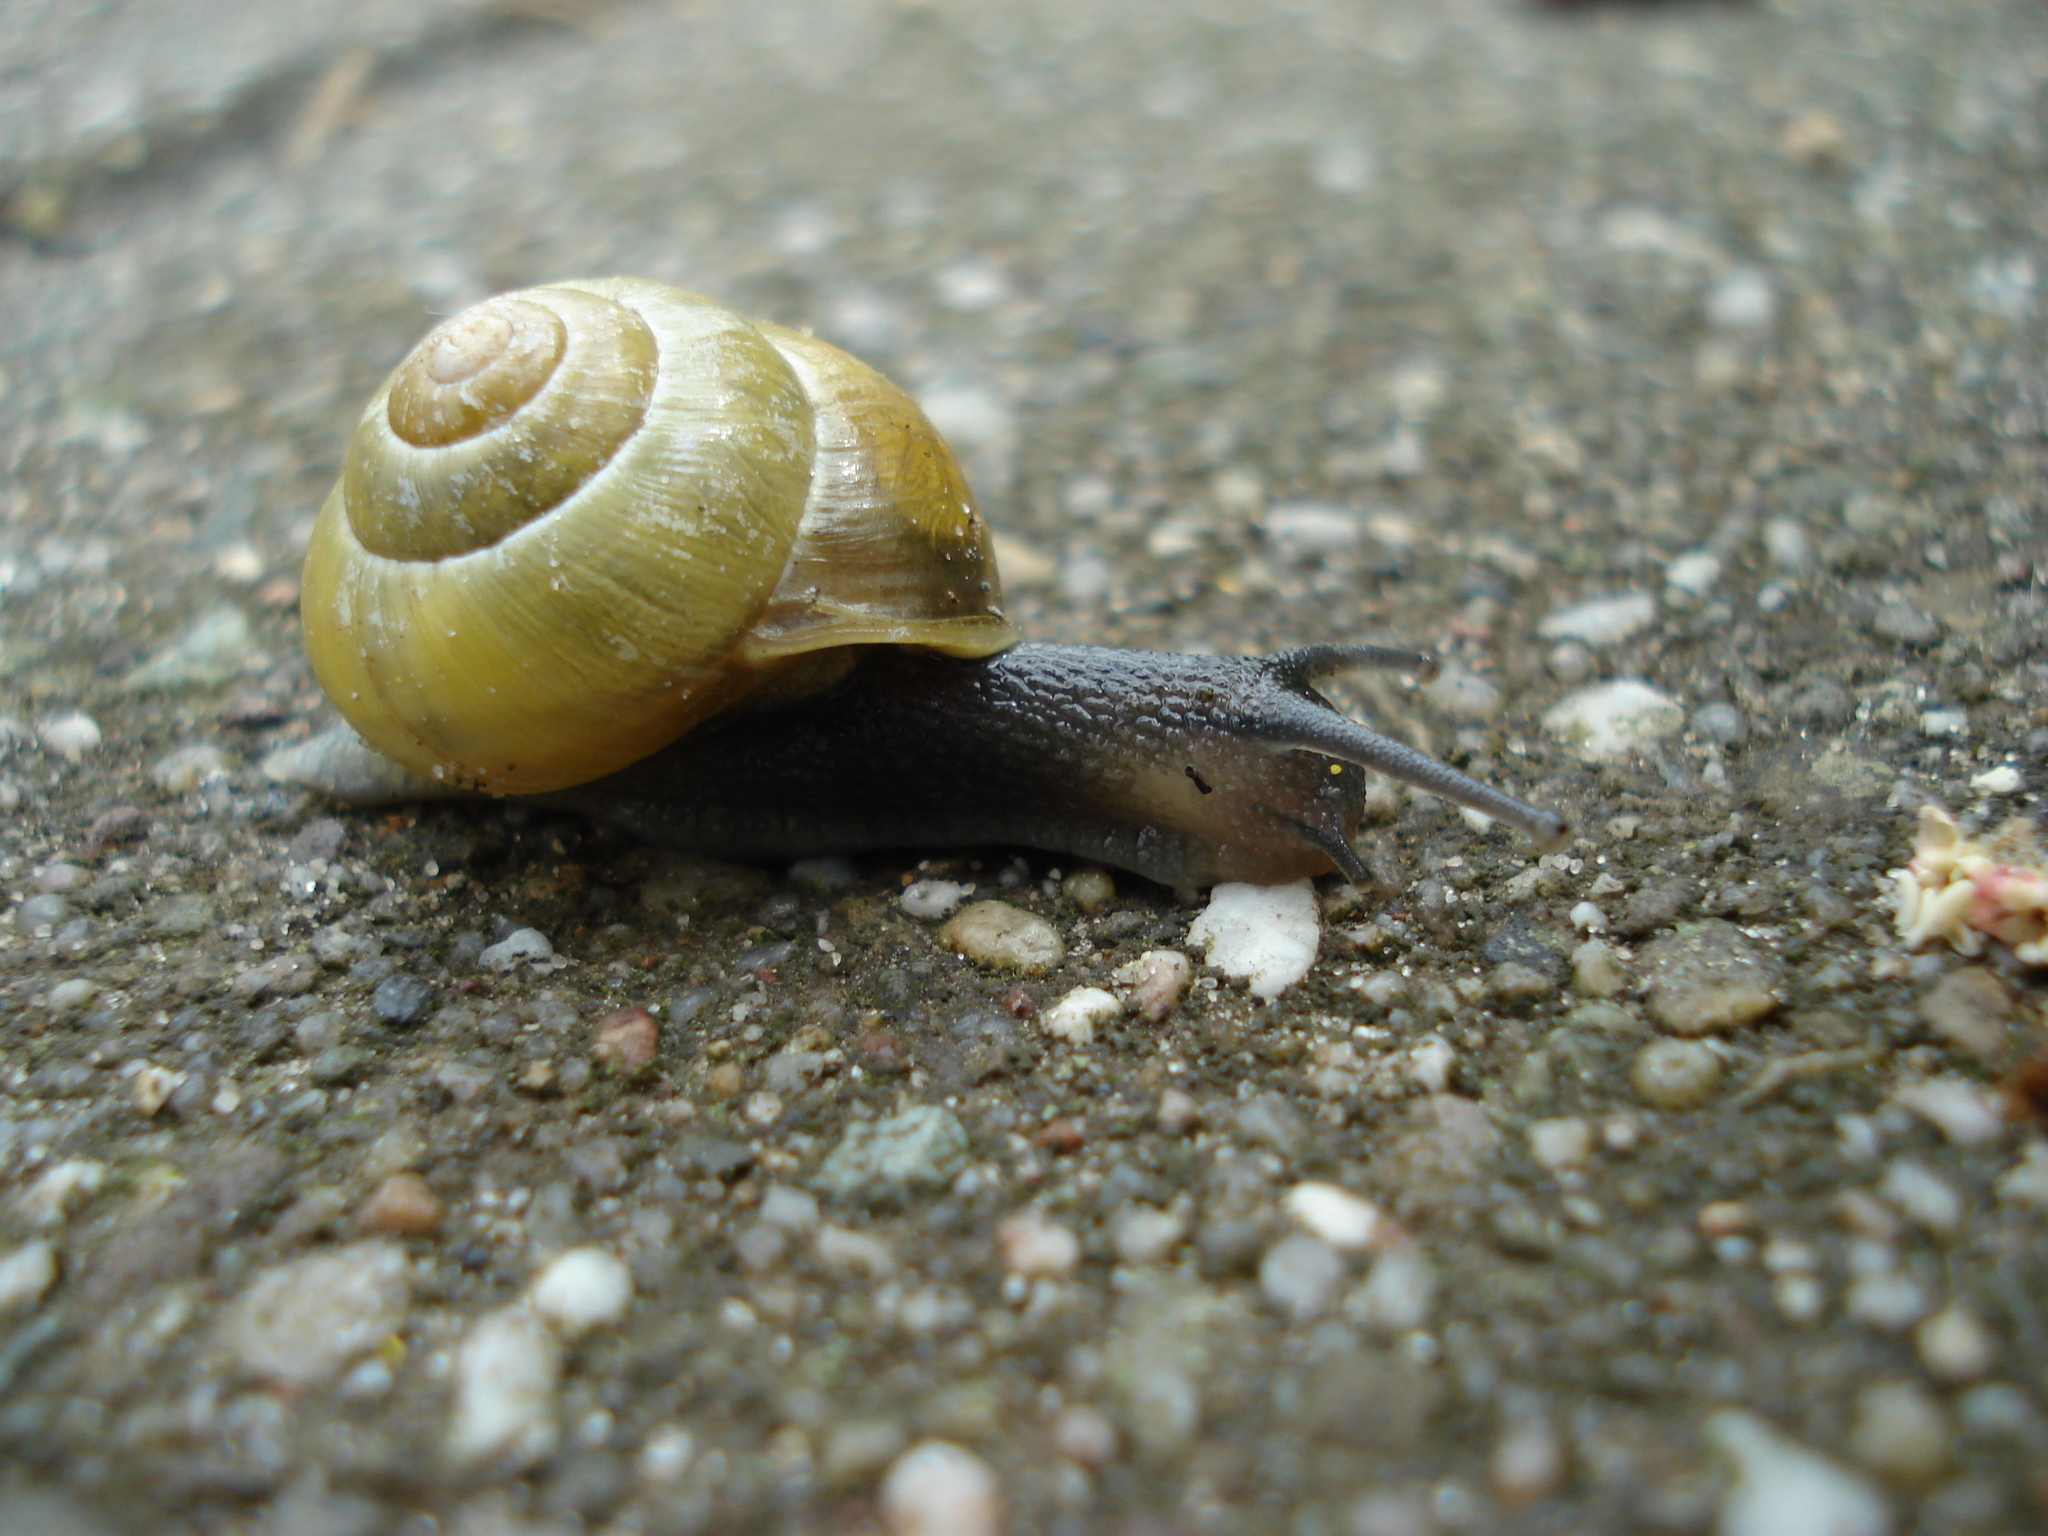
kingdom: Animalia
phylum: Mollusca
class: Gastropoda
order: Stylommatophora
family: Helicidae
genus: Cepaea
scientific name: Cepaea hortensis
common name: White-lip gardensnail
